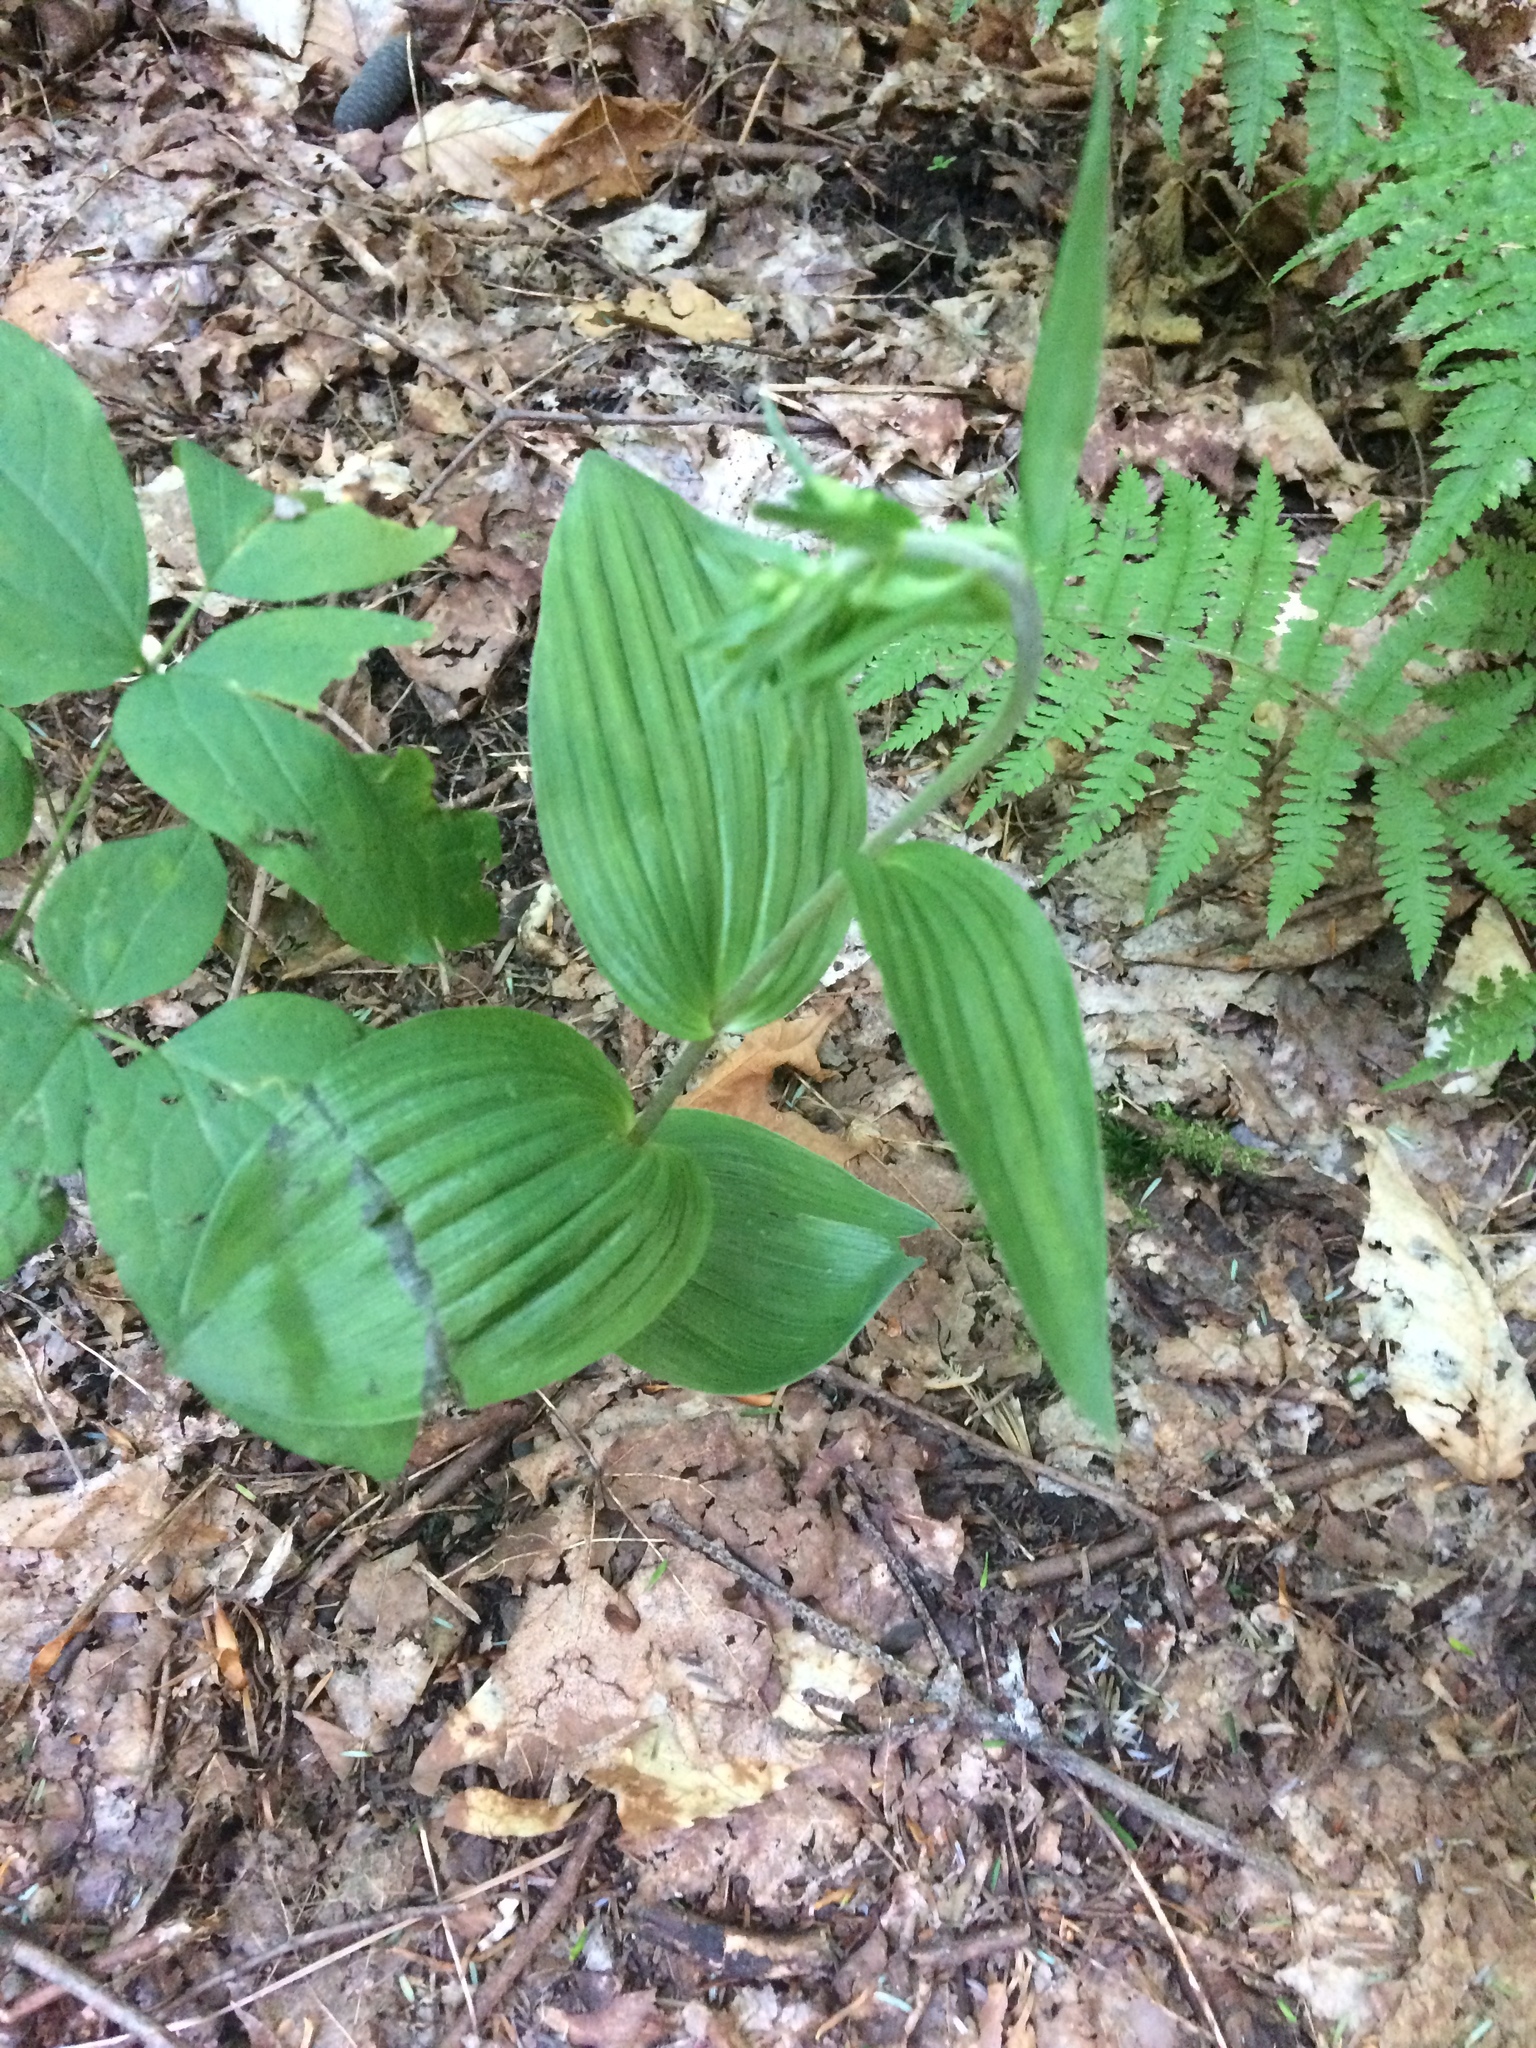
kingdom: Plantae
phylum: Tracheophyta
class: Liliopsida
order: Asparagales
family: Orchidaceae
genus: Epipactis
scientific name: Epipactis helleborine
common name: Broad-leaved helleborine
